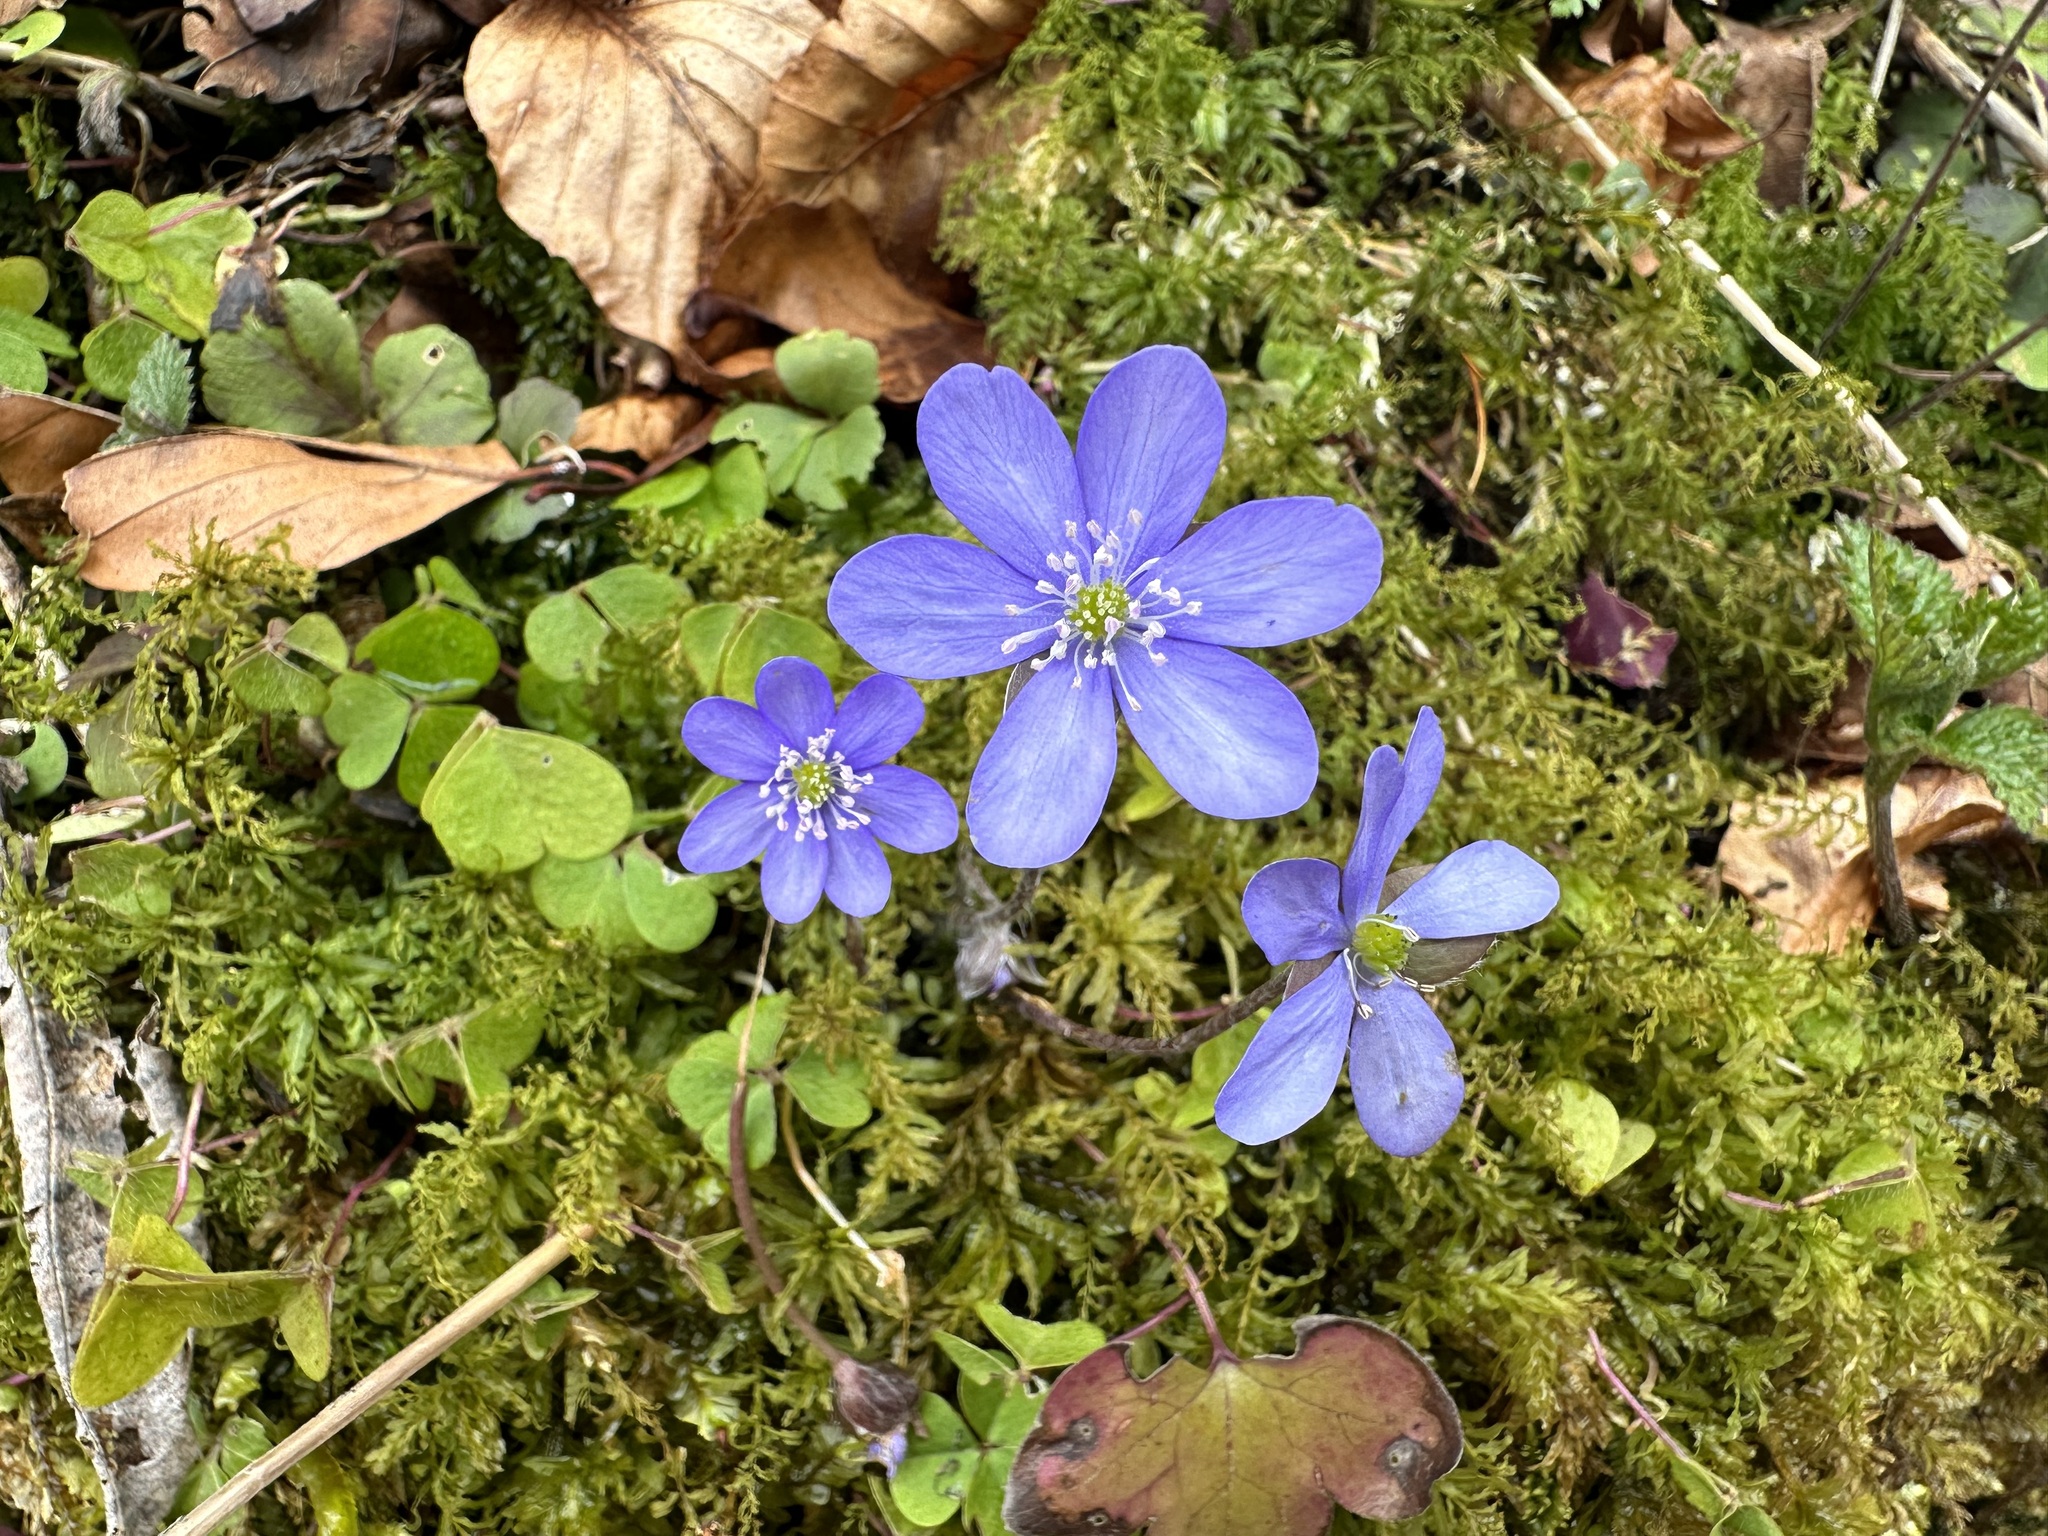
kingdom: Plantae
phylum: Tracheophyta
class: Magnoliopsida
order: Ranunculales
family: Ranunculaceae
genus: Hepatica
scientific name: Hepatica nobilis
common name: Liverleaf
